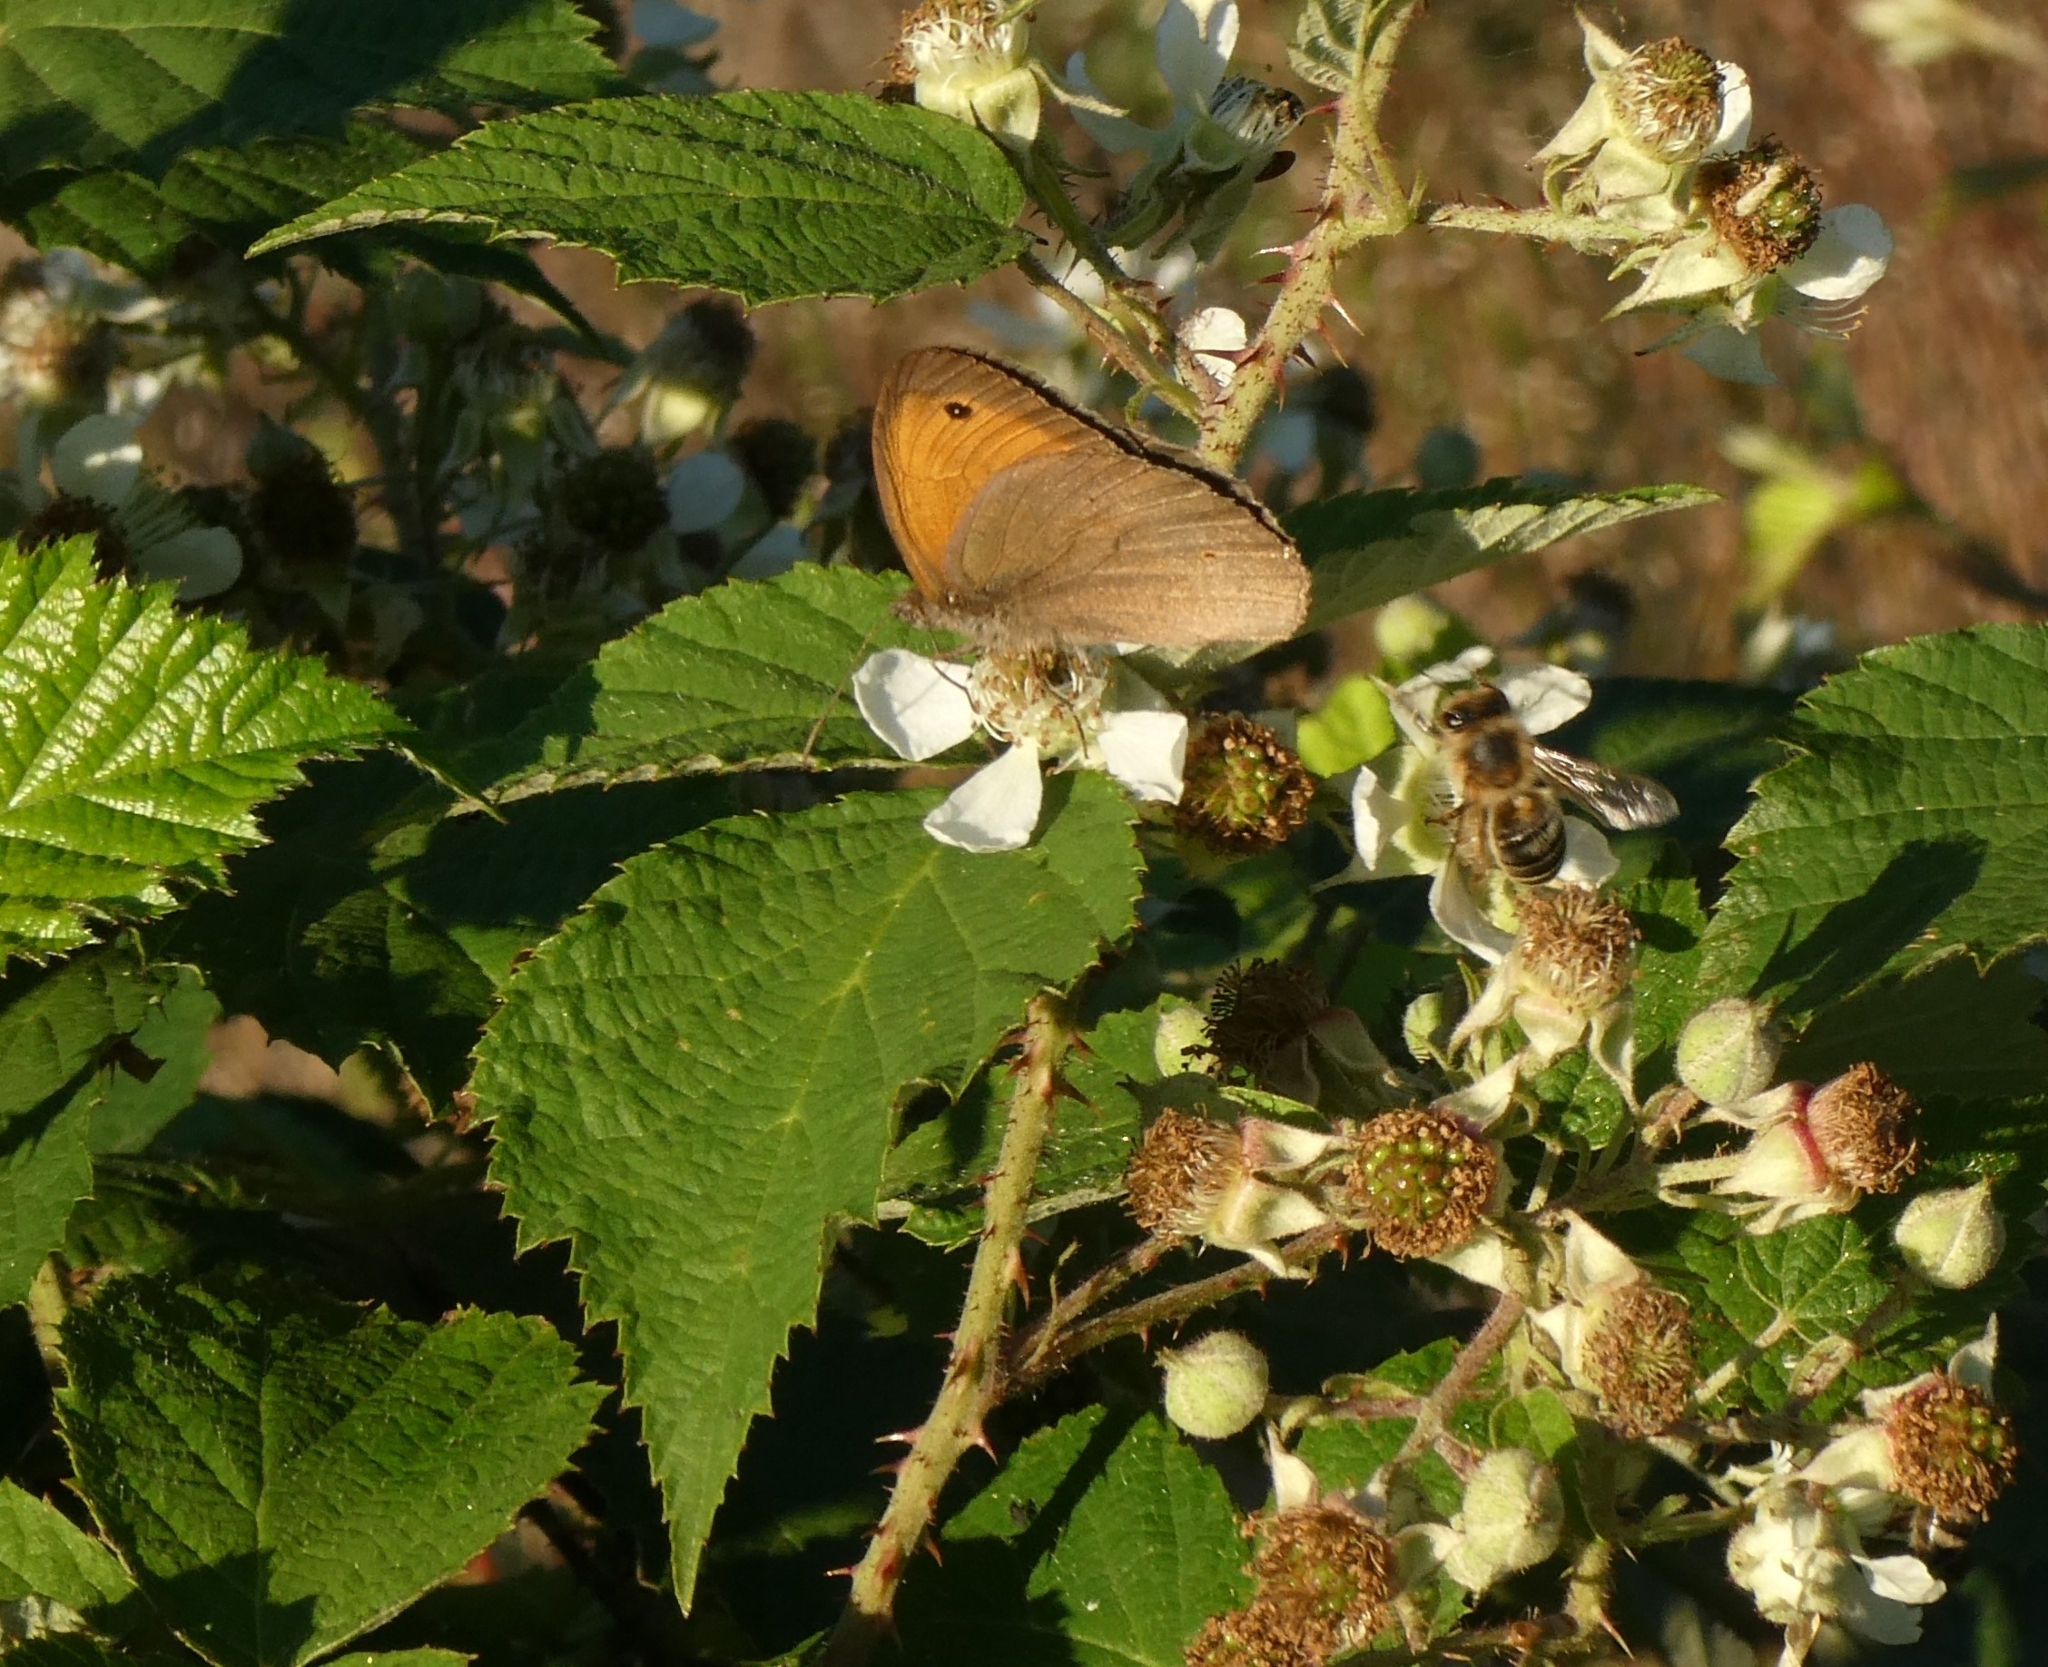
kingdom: Animalia
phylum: Arthropoda
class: Insecta
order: Lepidoptera
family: Nymphalidae
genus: Maniola
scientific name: Maniola jurtina
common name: Meadow brown
